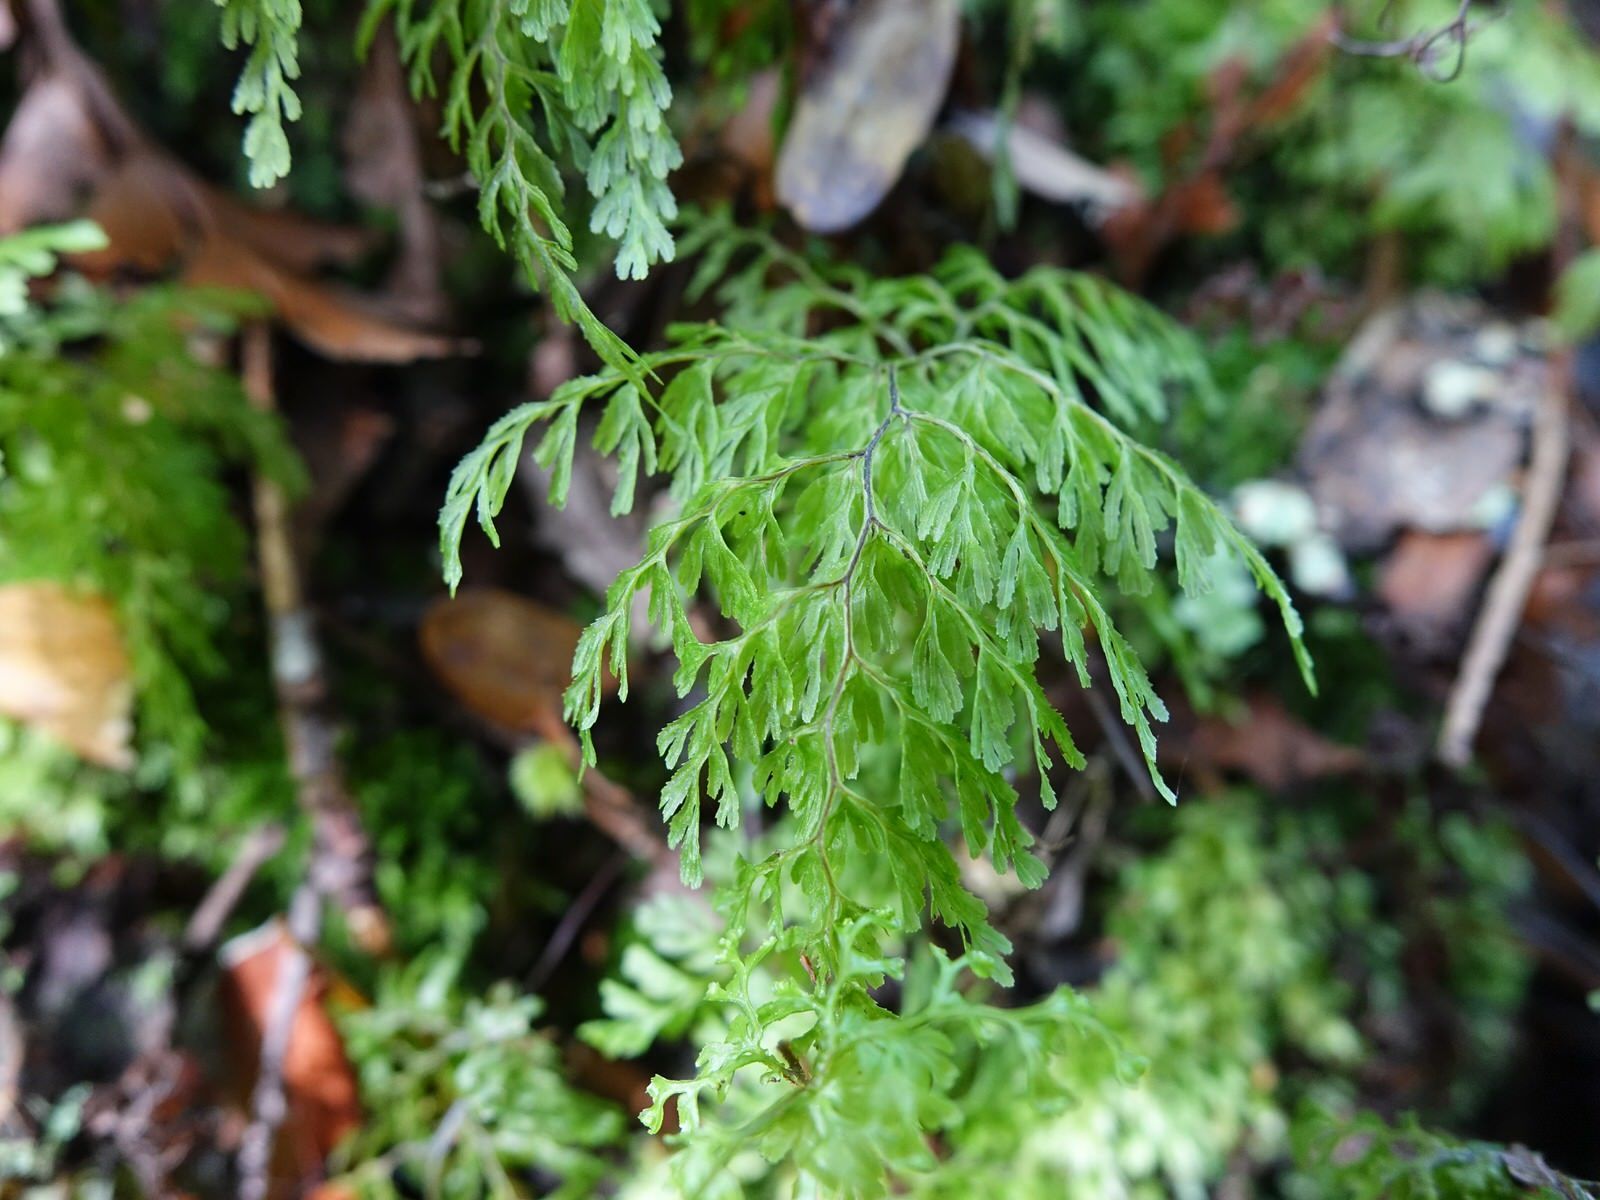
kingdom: Plantae
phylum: Tracheophyta
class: Polypodiopsida
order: Hymenophyllales
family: Hymenophyllaceae
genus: Hymenophyllum
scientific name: Hymenophyllum bivalve
